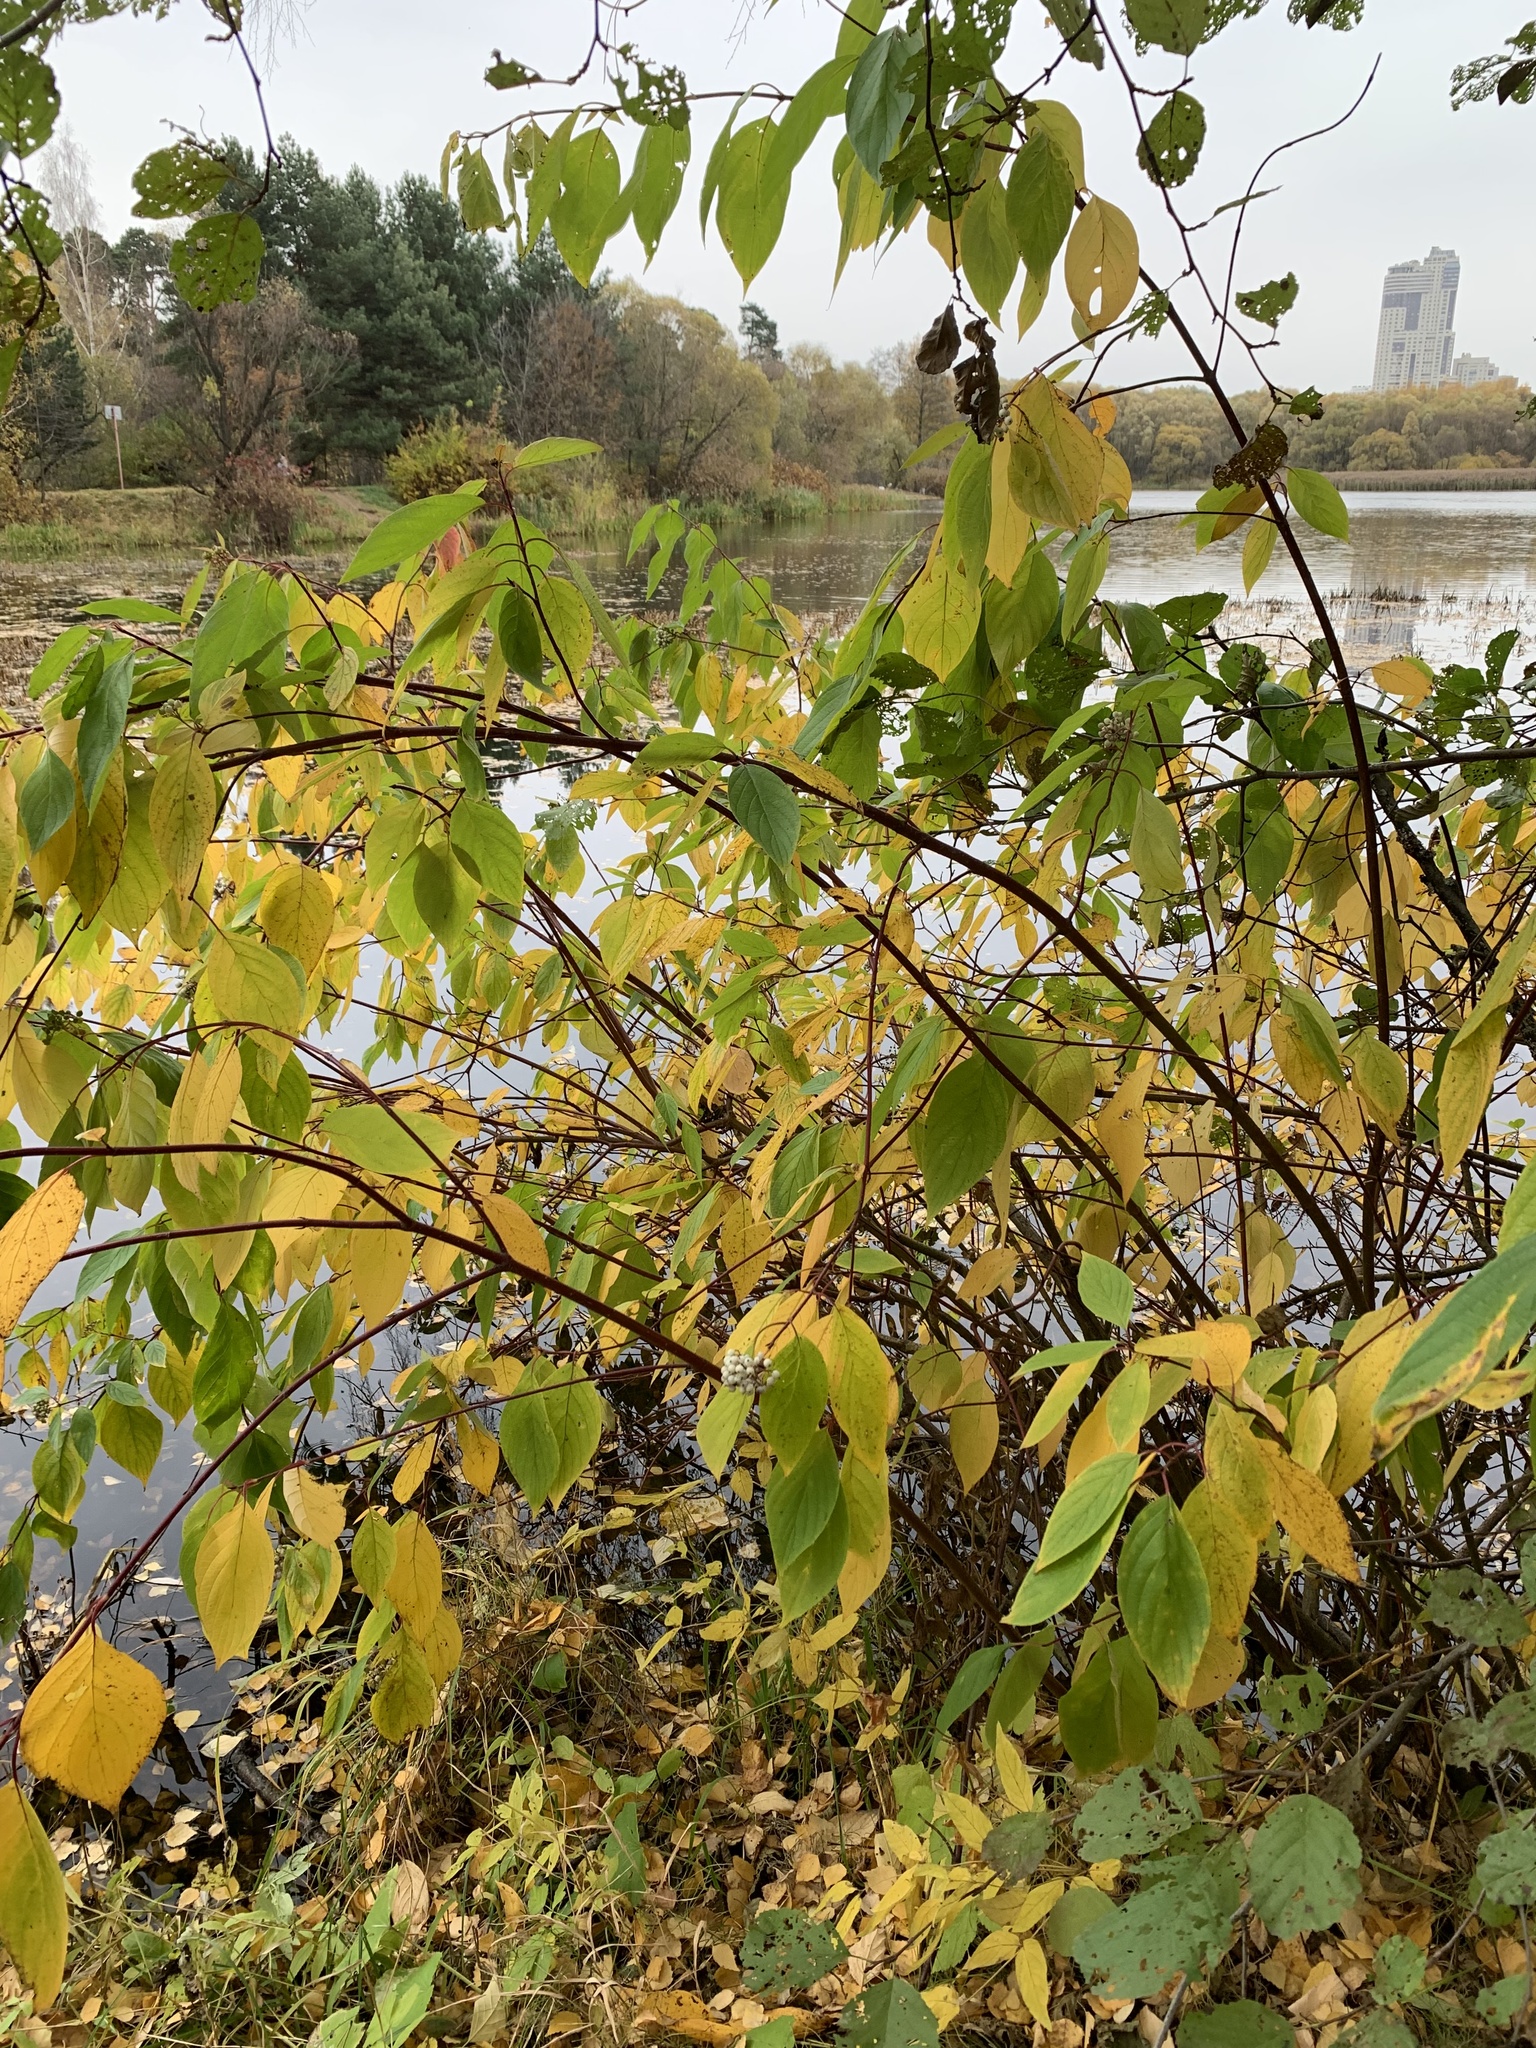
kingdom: Plantae
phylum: Tracheophyta
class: Magnoliopsida
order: Cornales
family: Cornaceae
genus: Cornus
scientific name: Cornus sericea
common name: Red-osier dogwood
